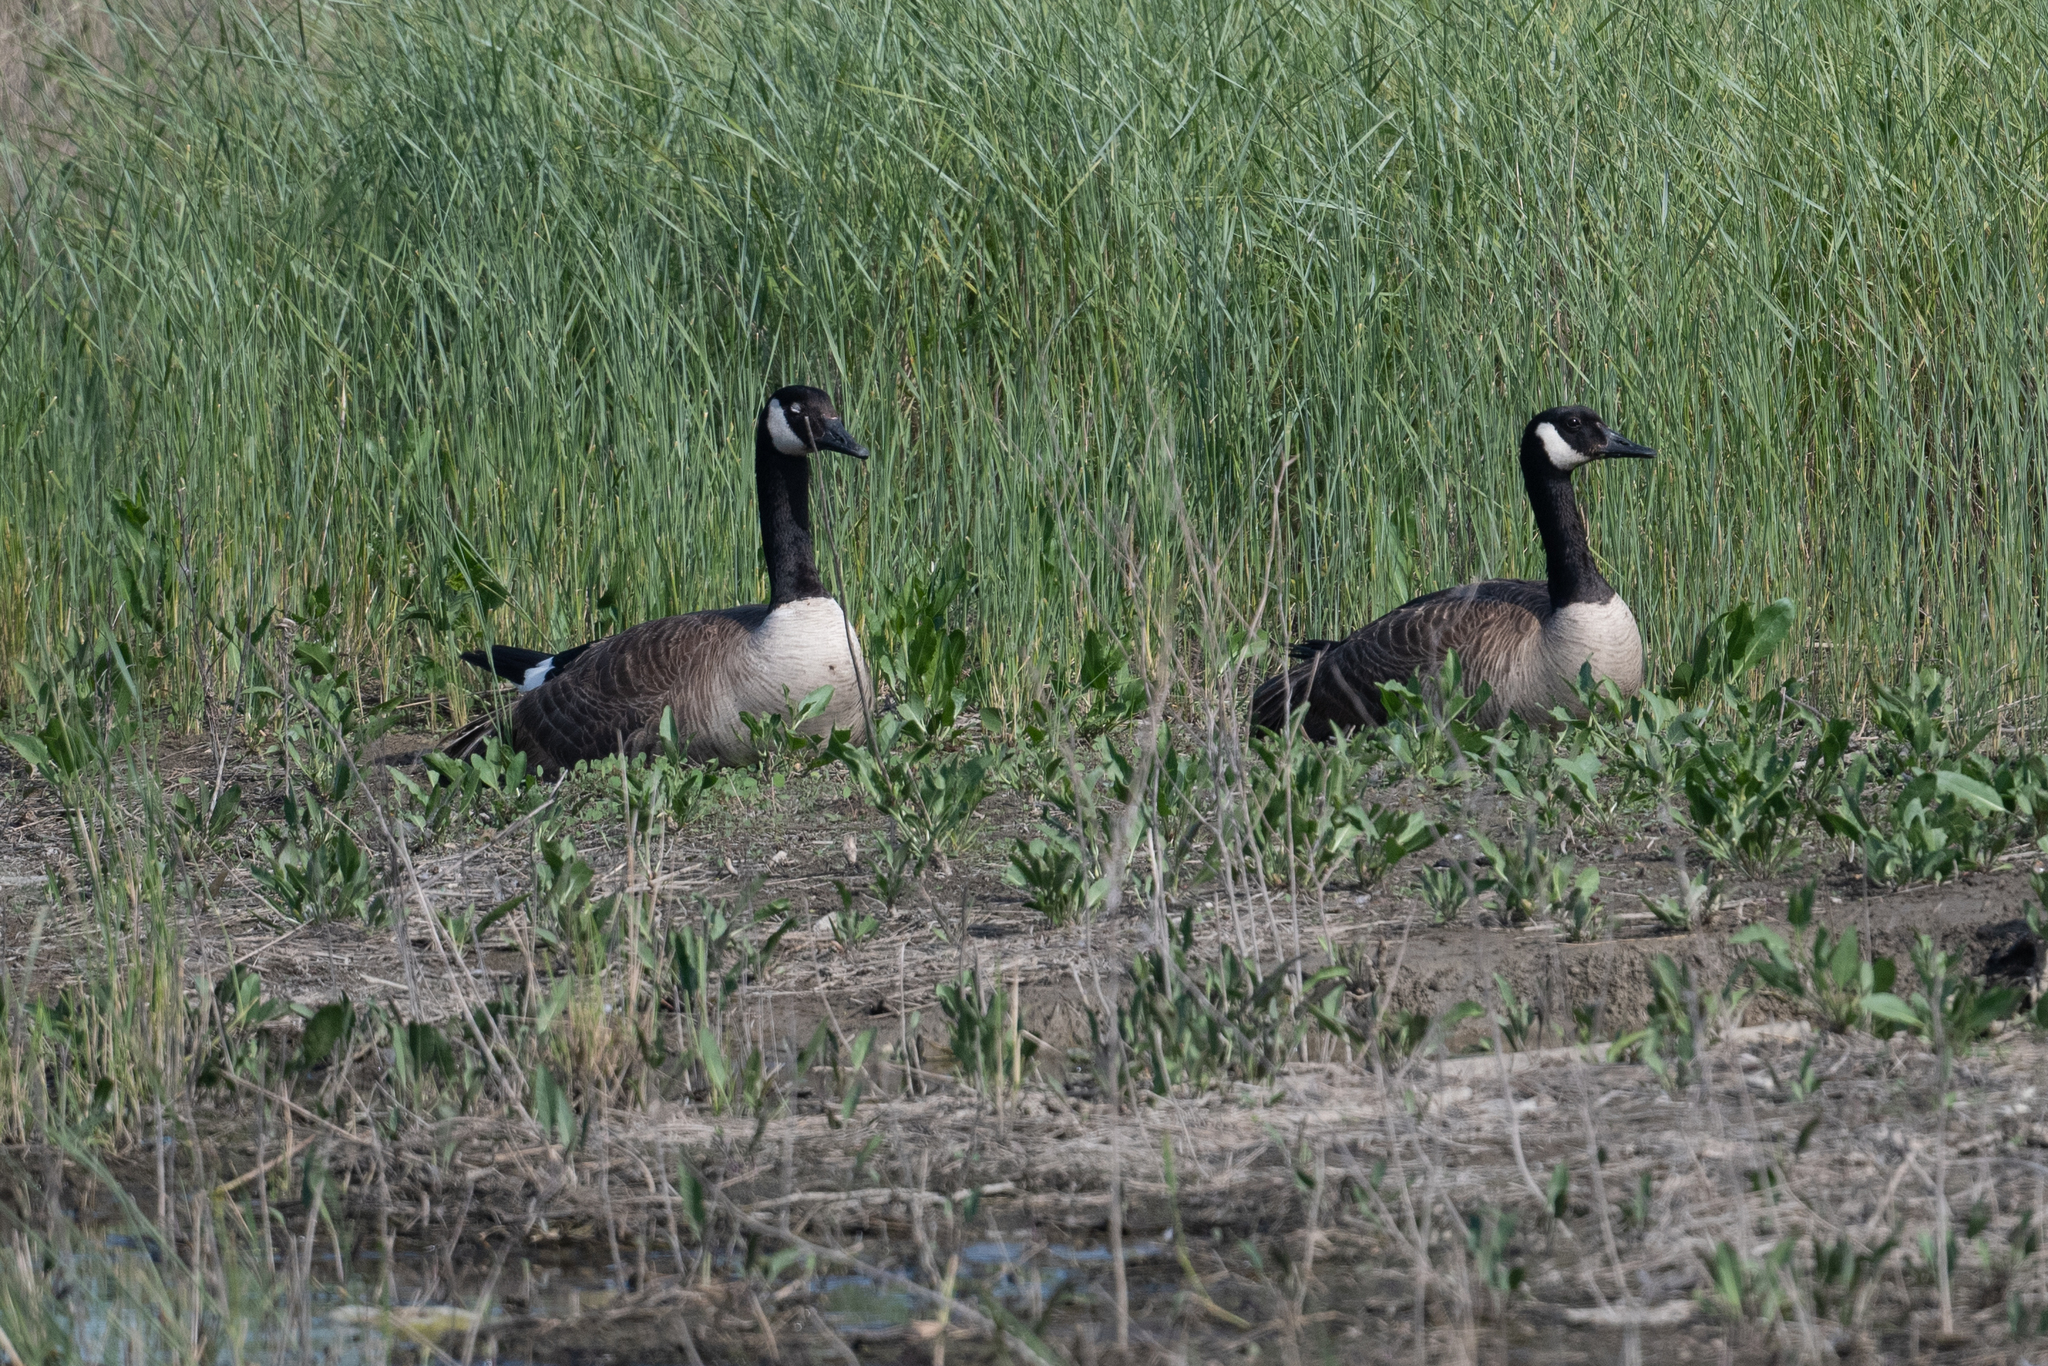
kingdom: Animalia
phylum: Chordata
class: Aves
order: Anseriformes
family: Anatidae
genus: Branta
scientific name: Branta canadensis
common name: Canada goose
